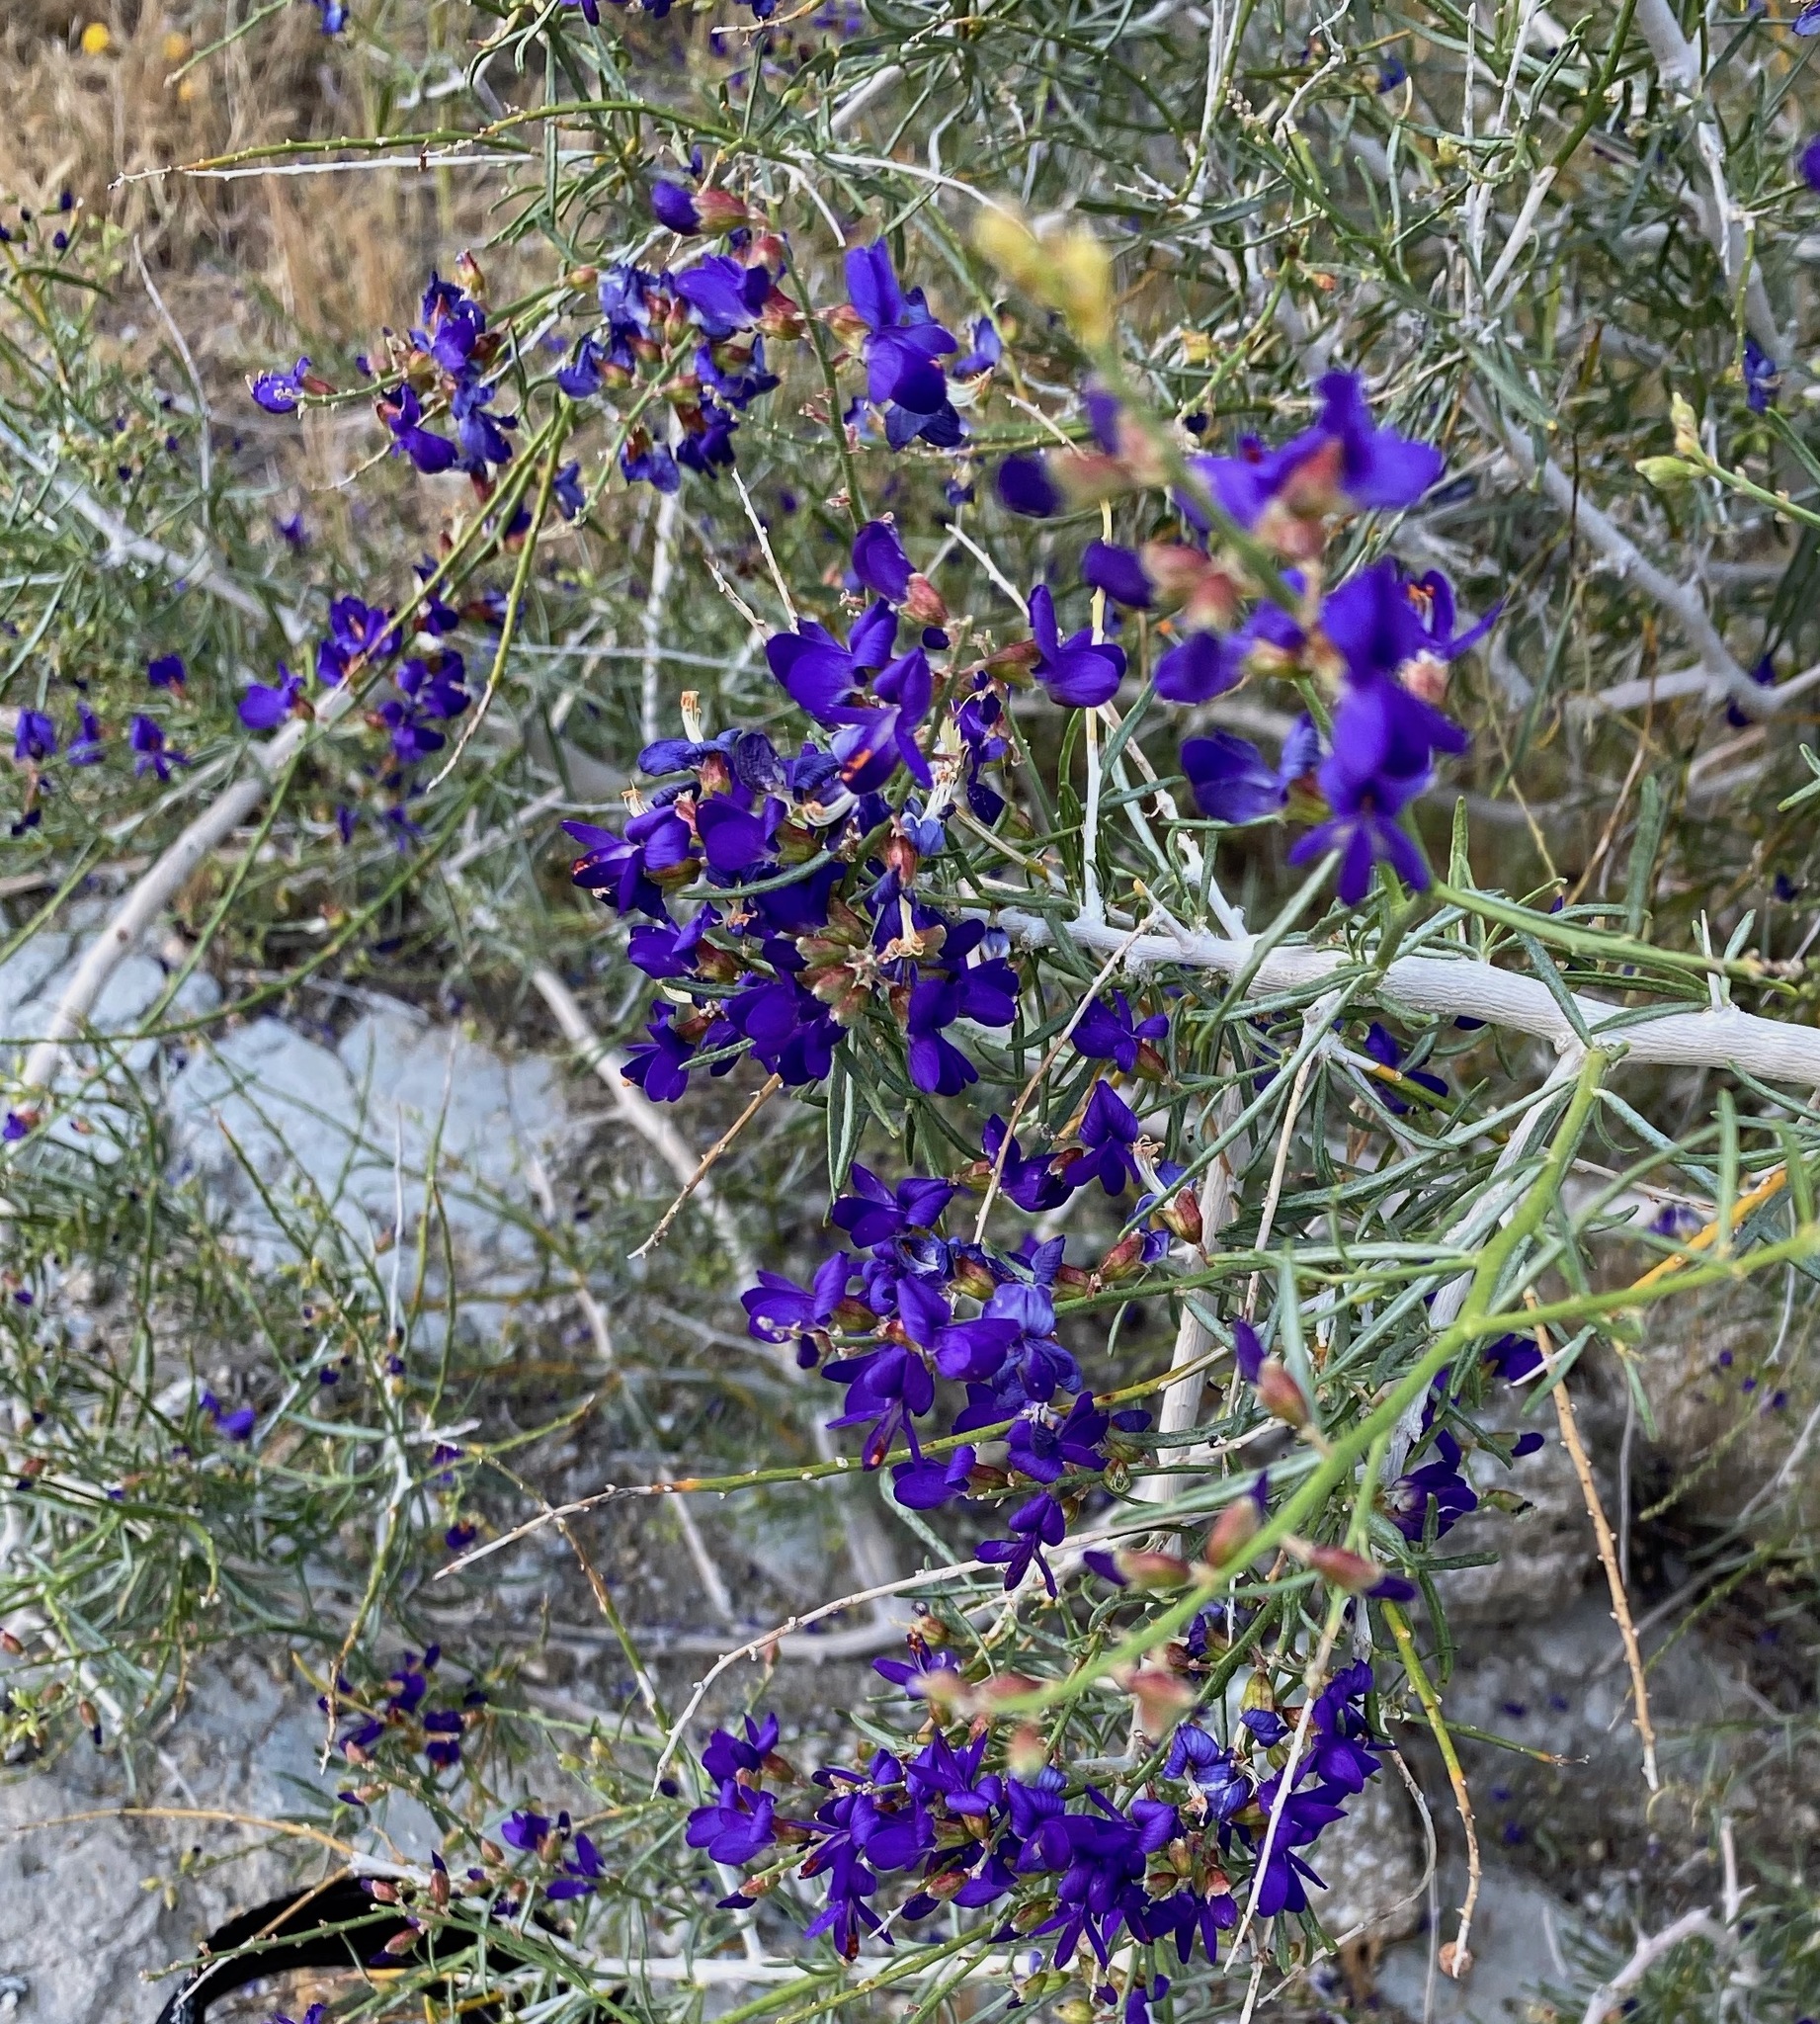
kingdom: Plantae
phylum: Tracheophyta
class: Magnoliopsida
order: Fabales
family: Fabaceae
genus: Psorothamnus
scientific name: Psorothamnus schottii
